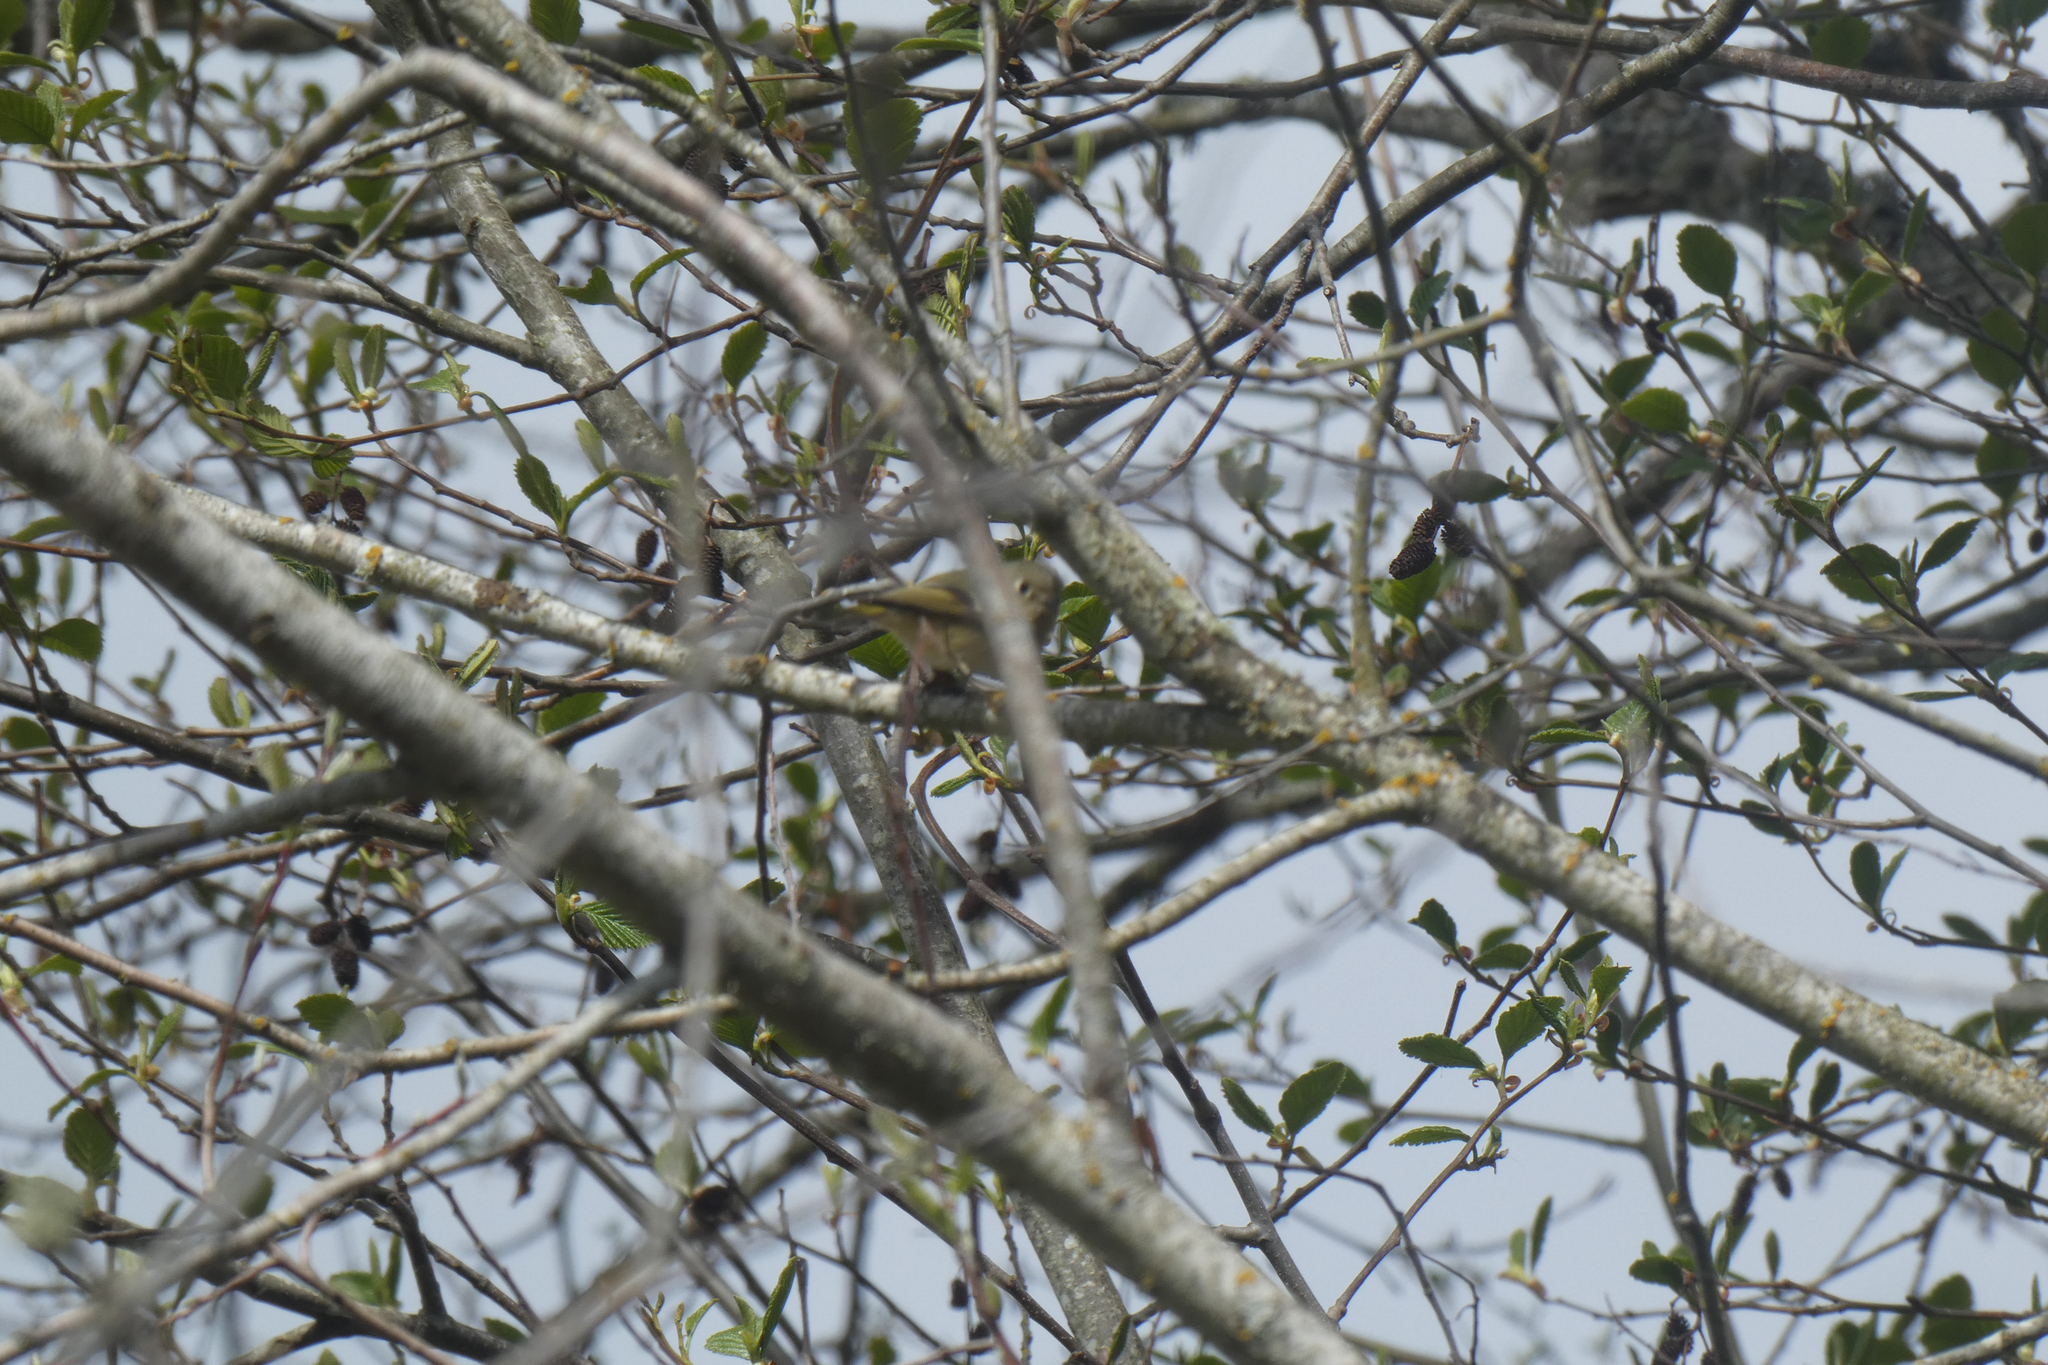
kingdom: Animalia
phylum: Chordata
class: Aves
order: Passeriformes
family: Regulidae
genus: Regulus
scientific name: Regulus calendula
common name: Ruby-crowned kinglet
